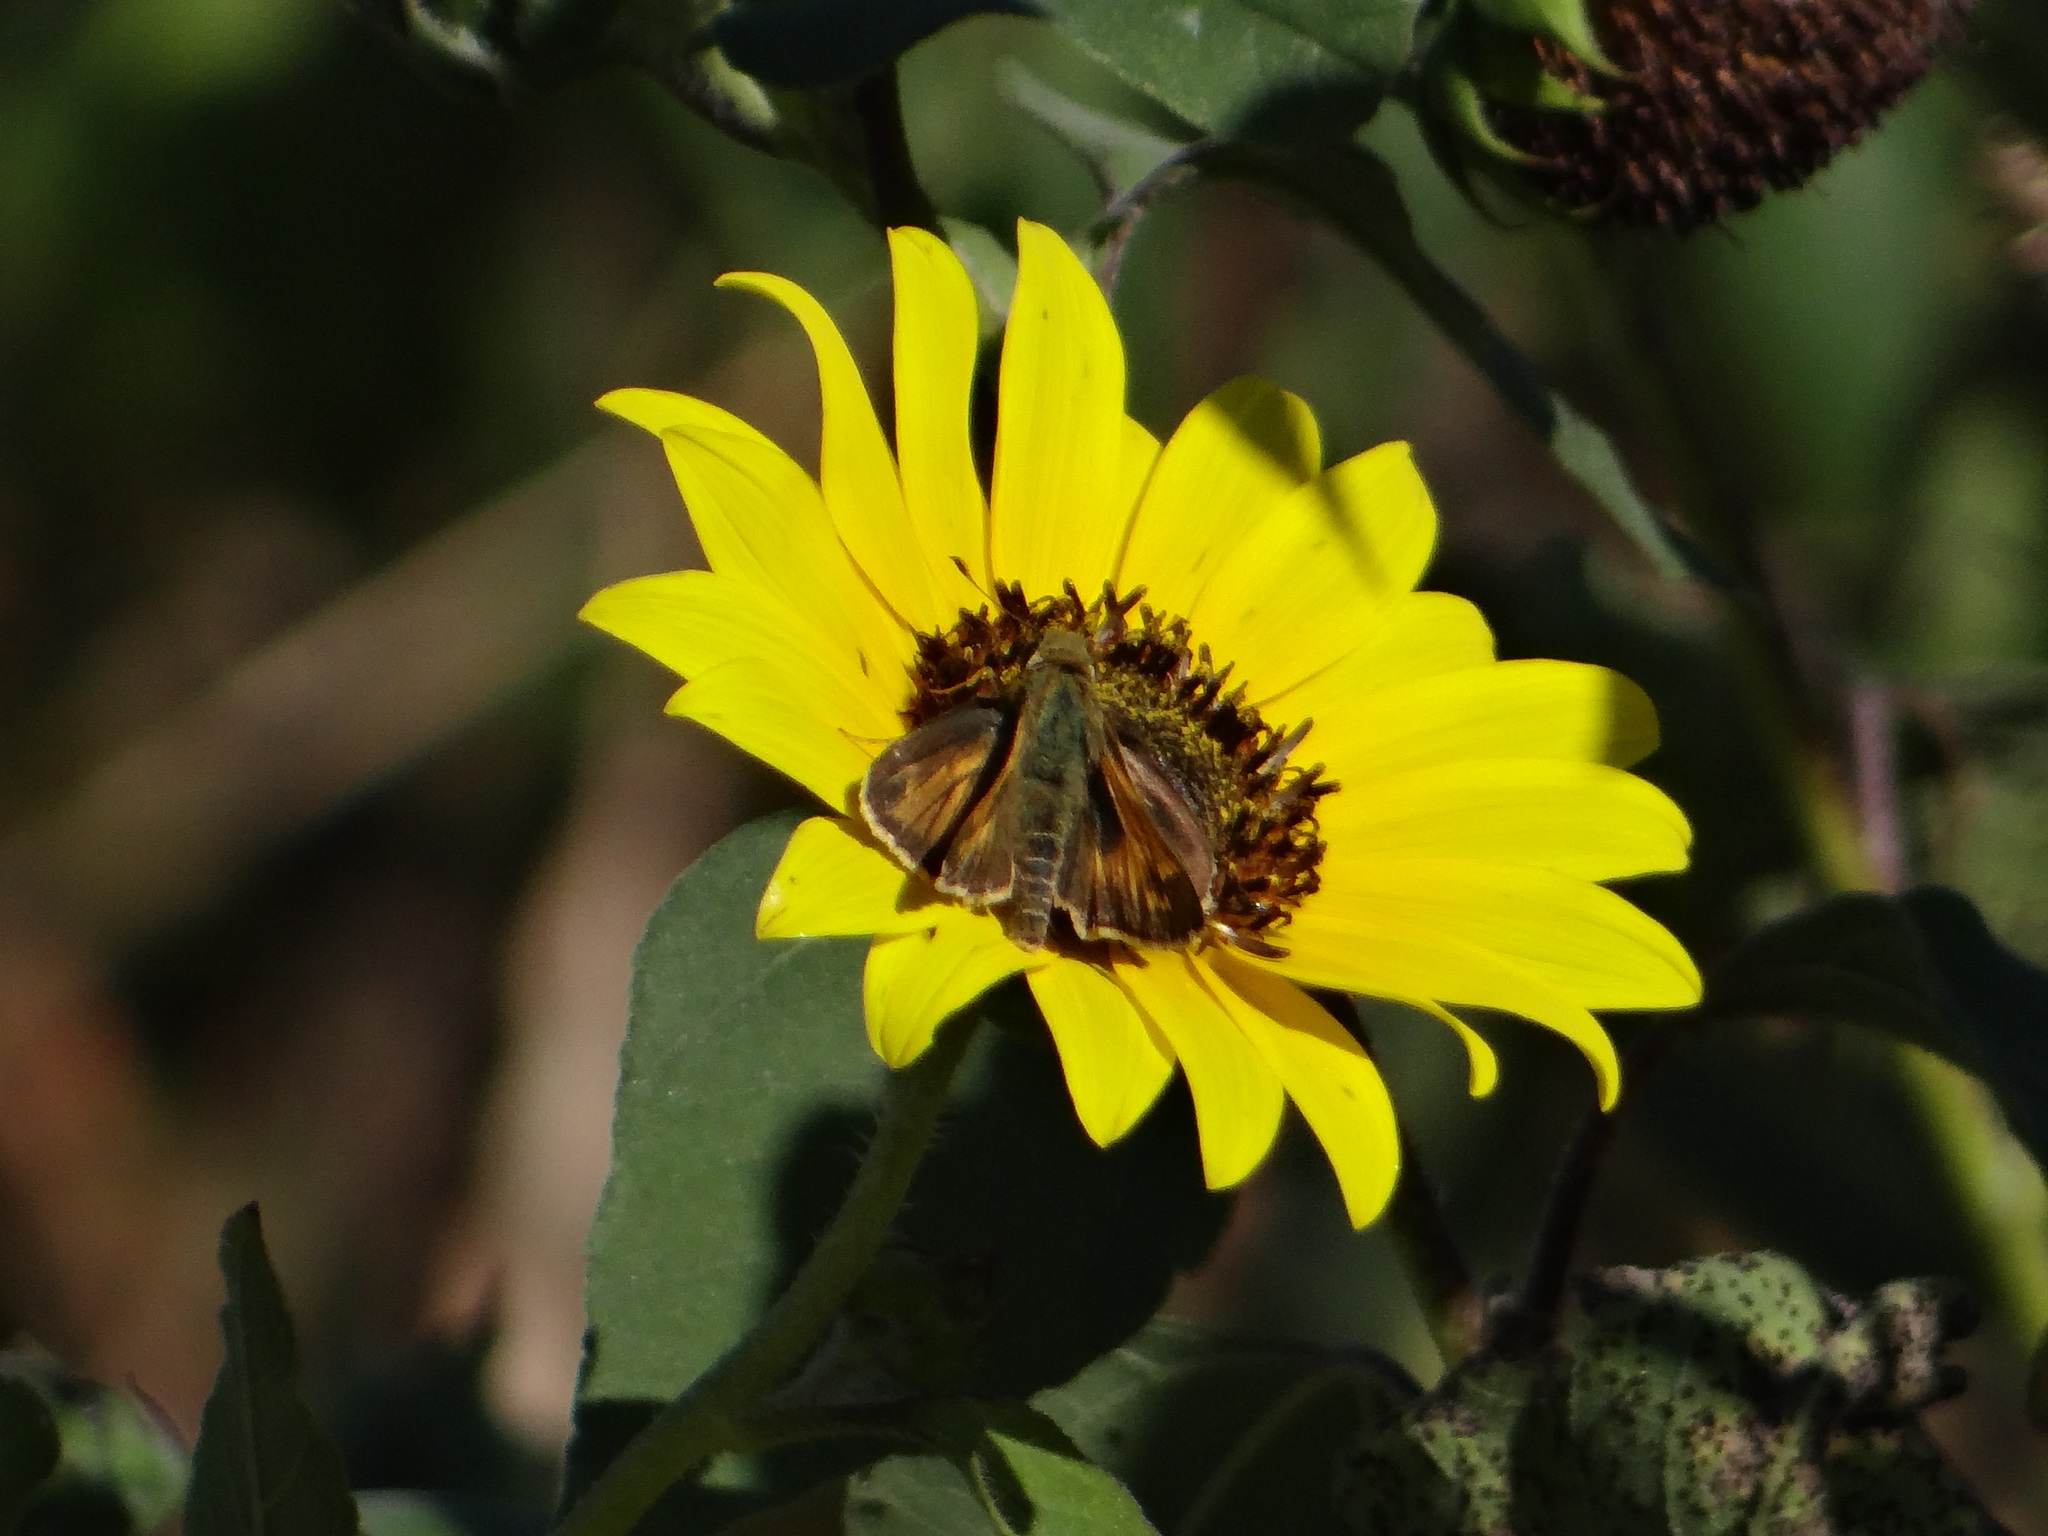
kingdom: Animalia
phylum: Arthropoda
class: Insecta
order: Lepidoptera
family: Hesperiidae
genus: Atalopedes
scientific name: Atalopedes
